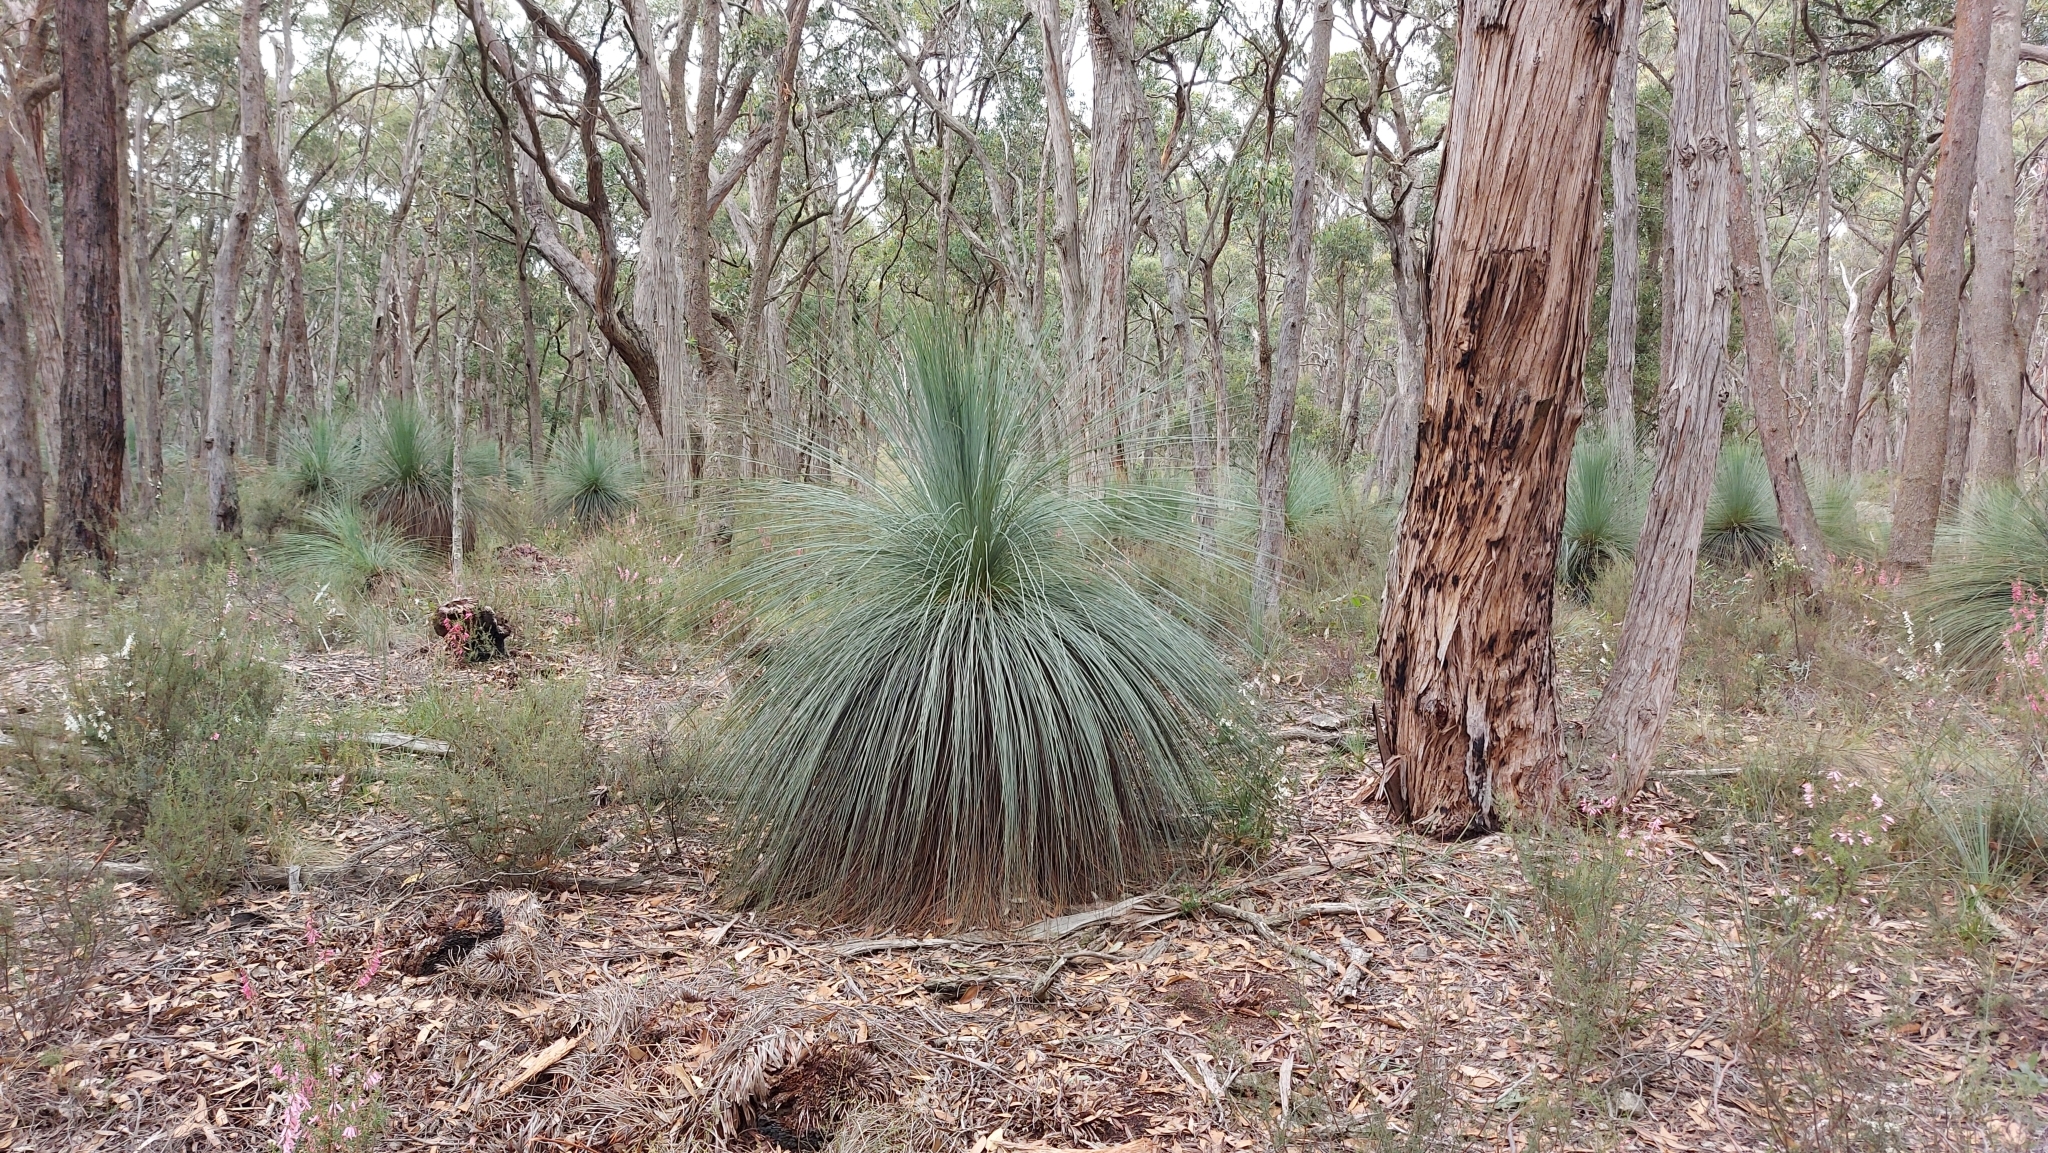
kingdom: Plantae
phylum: Tracheophyta
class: Liliopsida
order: Asparagales
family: Asphodelaceae
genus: Xanthorrhoea
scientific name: Xanthorrhoea australis
